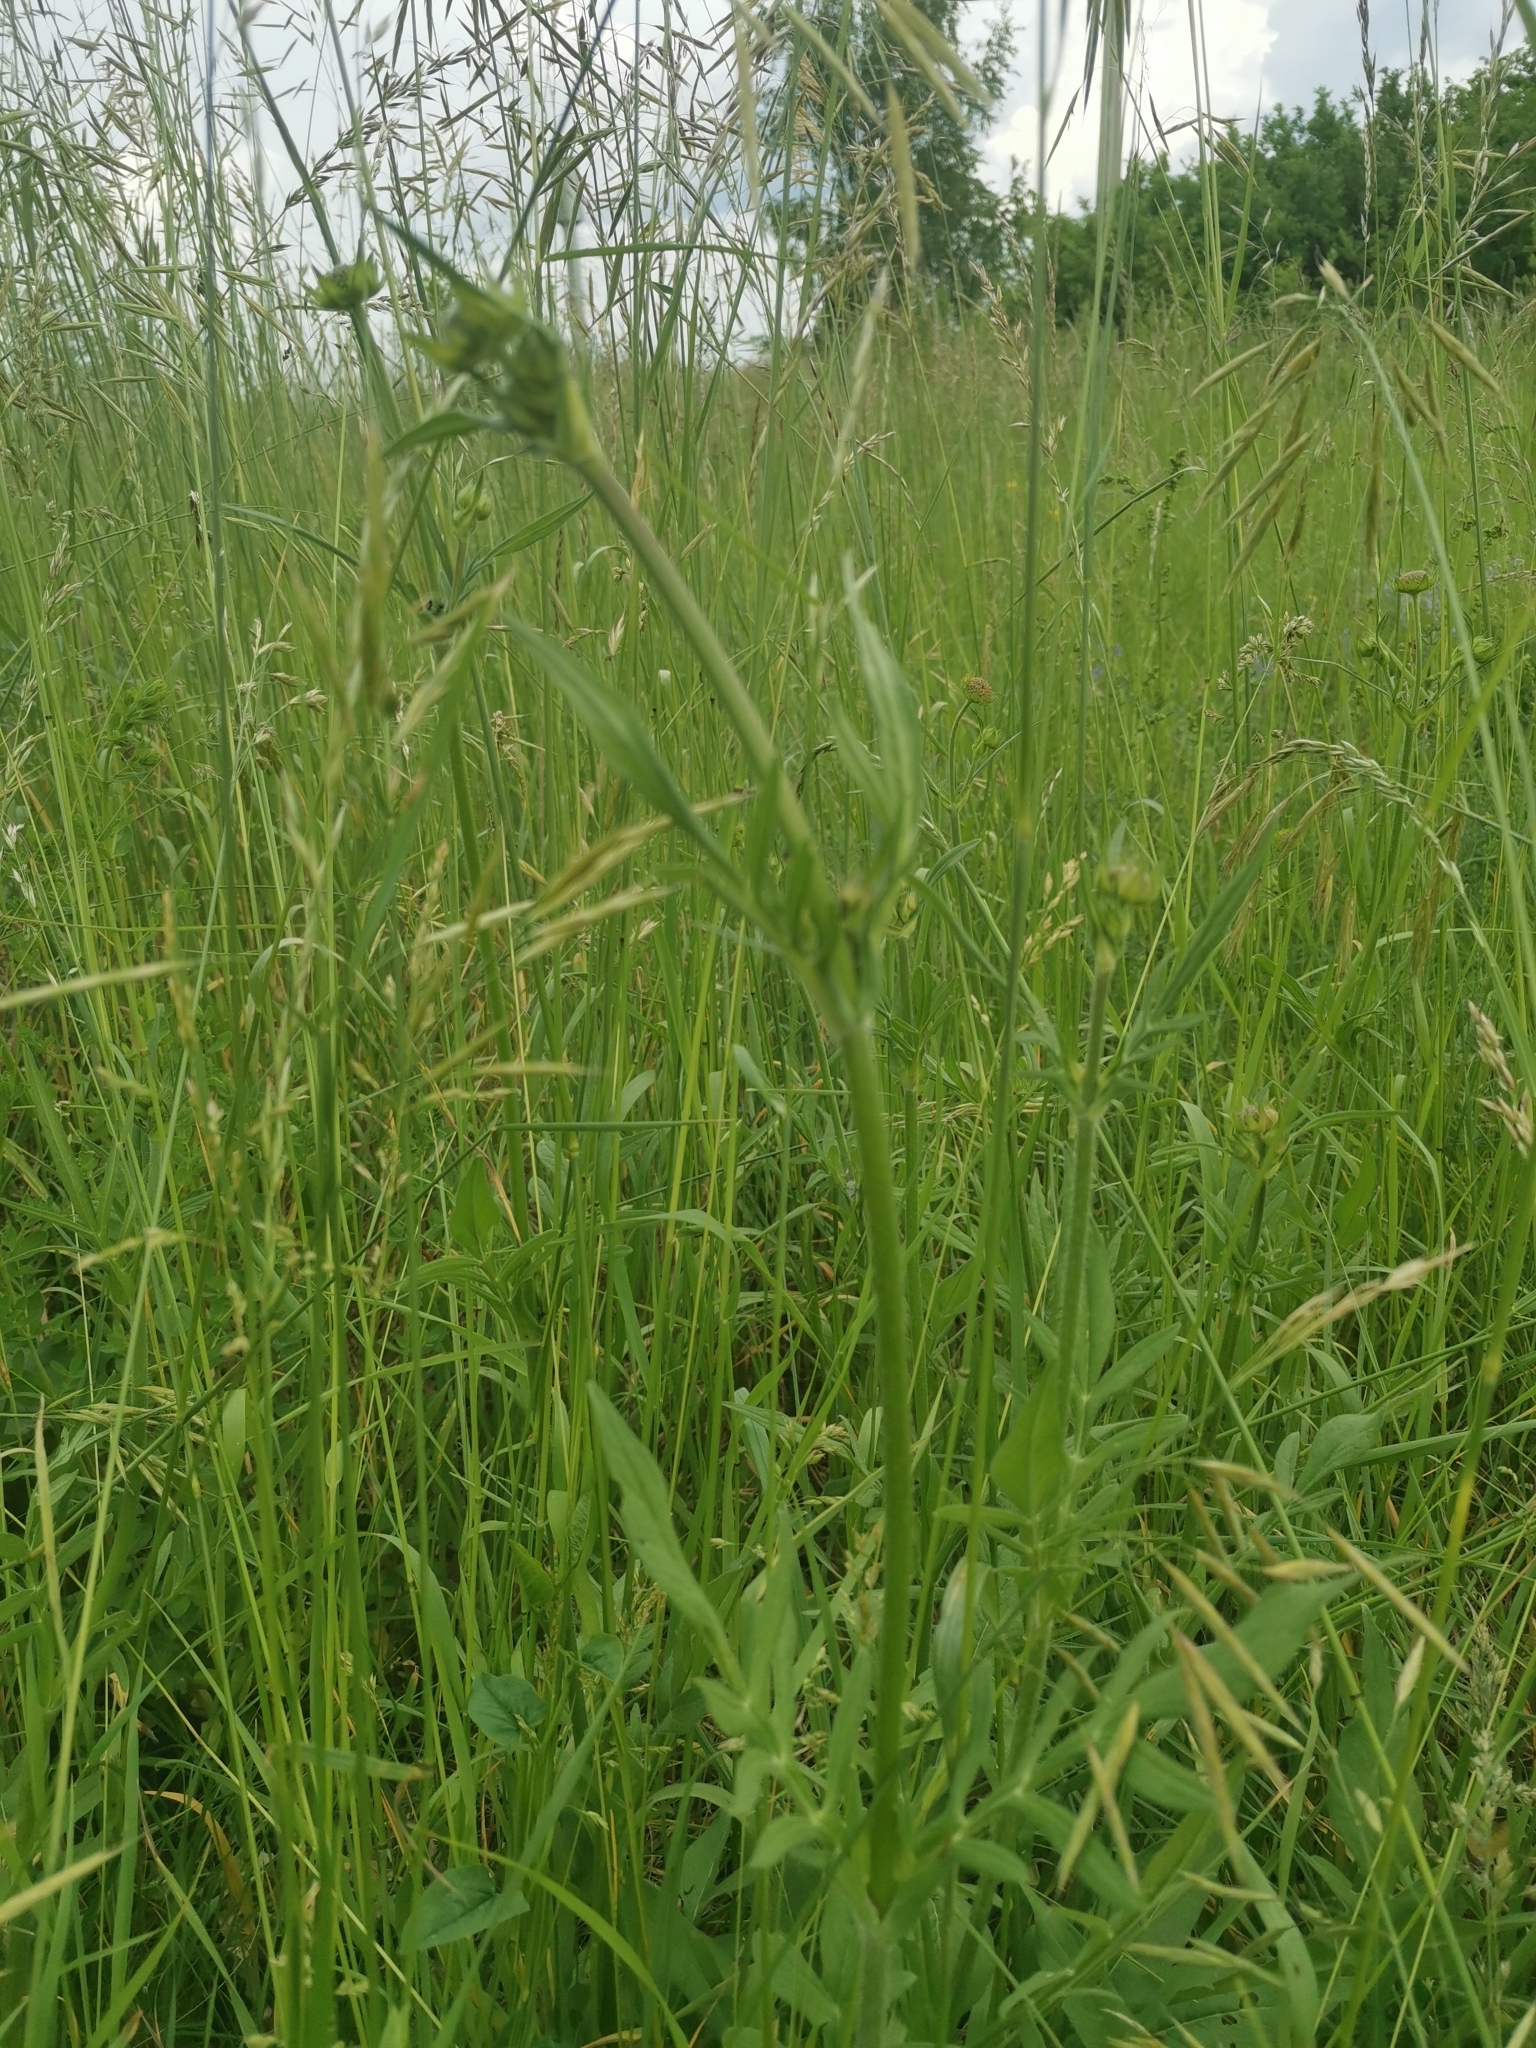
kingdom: Plantae
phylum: Tracheophyta
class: Magnoliopsida
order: Dipsacales
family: Caprifoliaceae
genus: Knautia
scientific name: Knautia arvensis
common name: Field scabiosa
